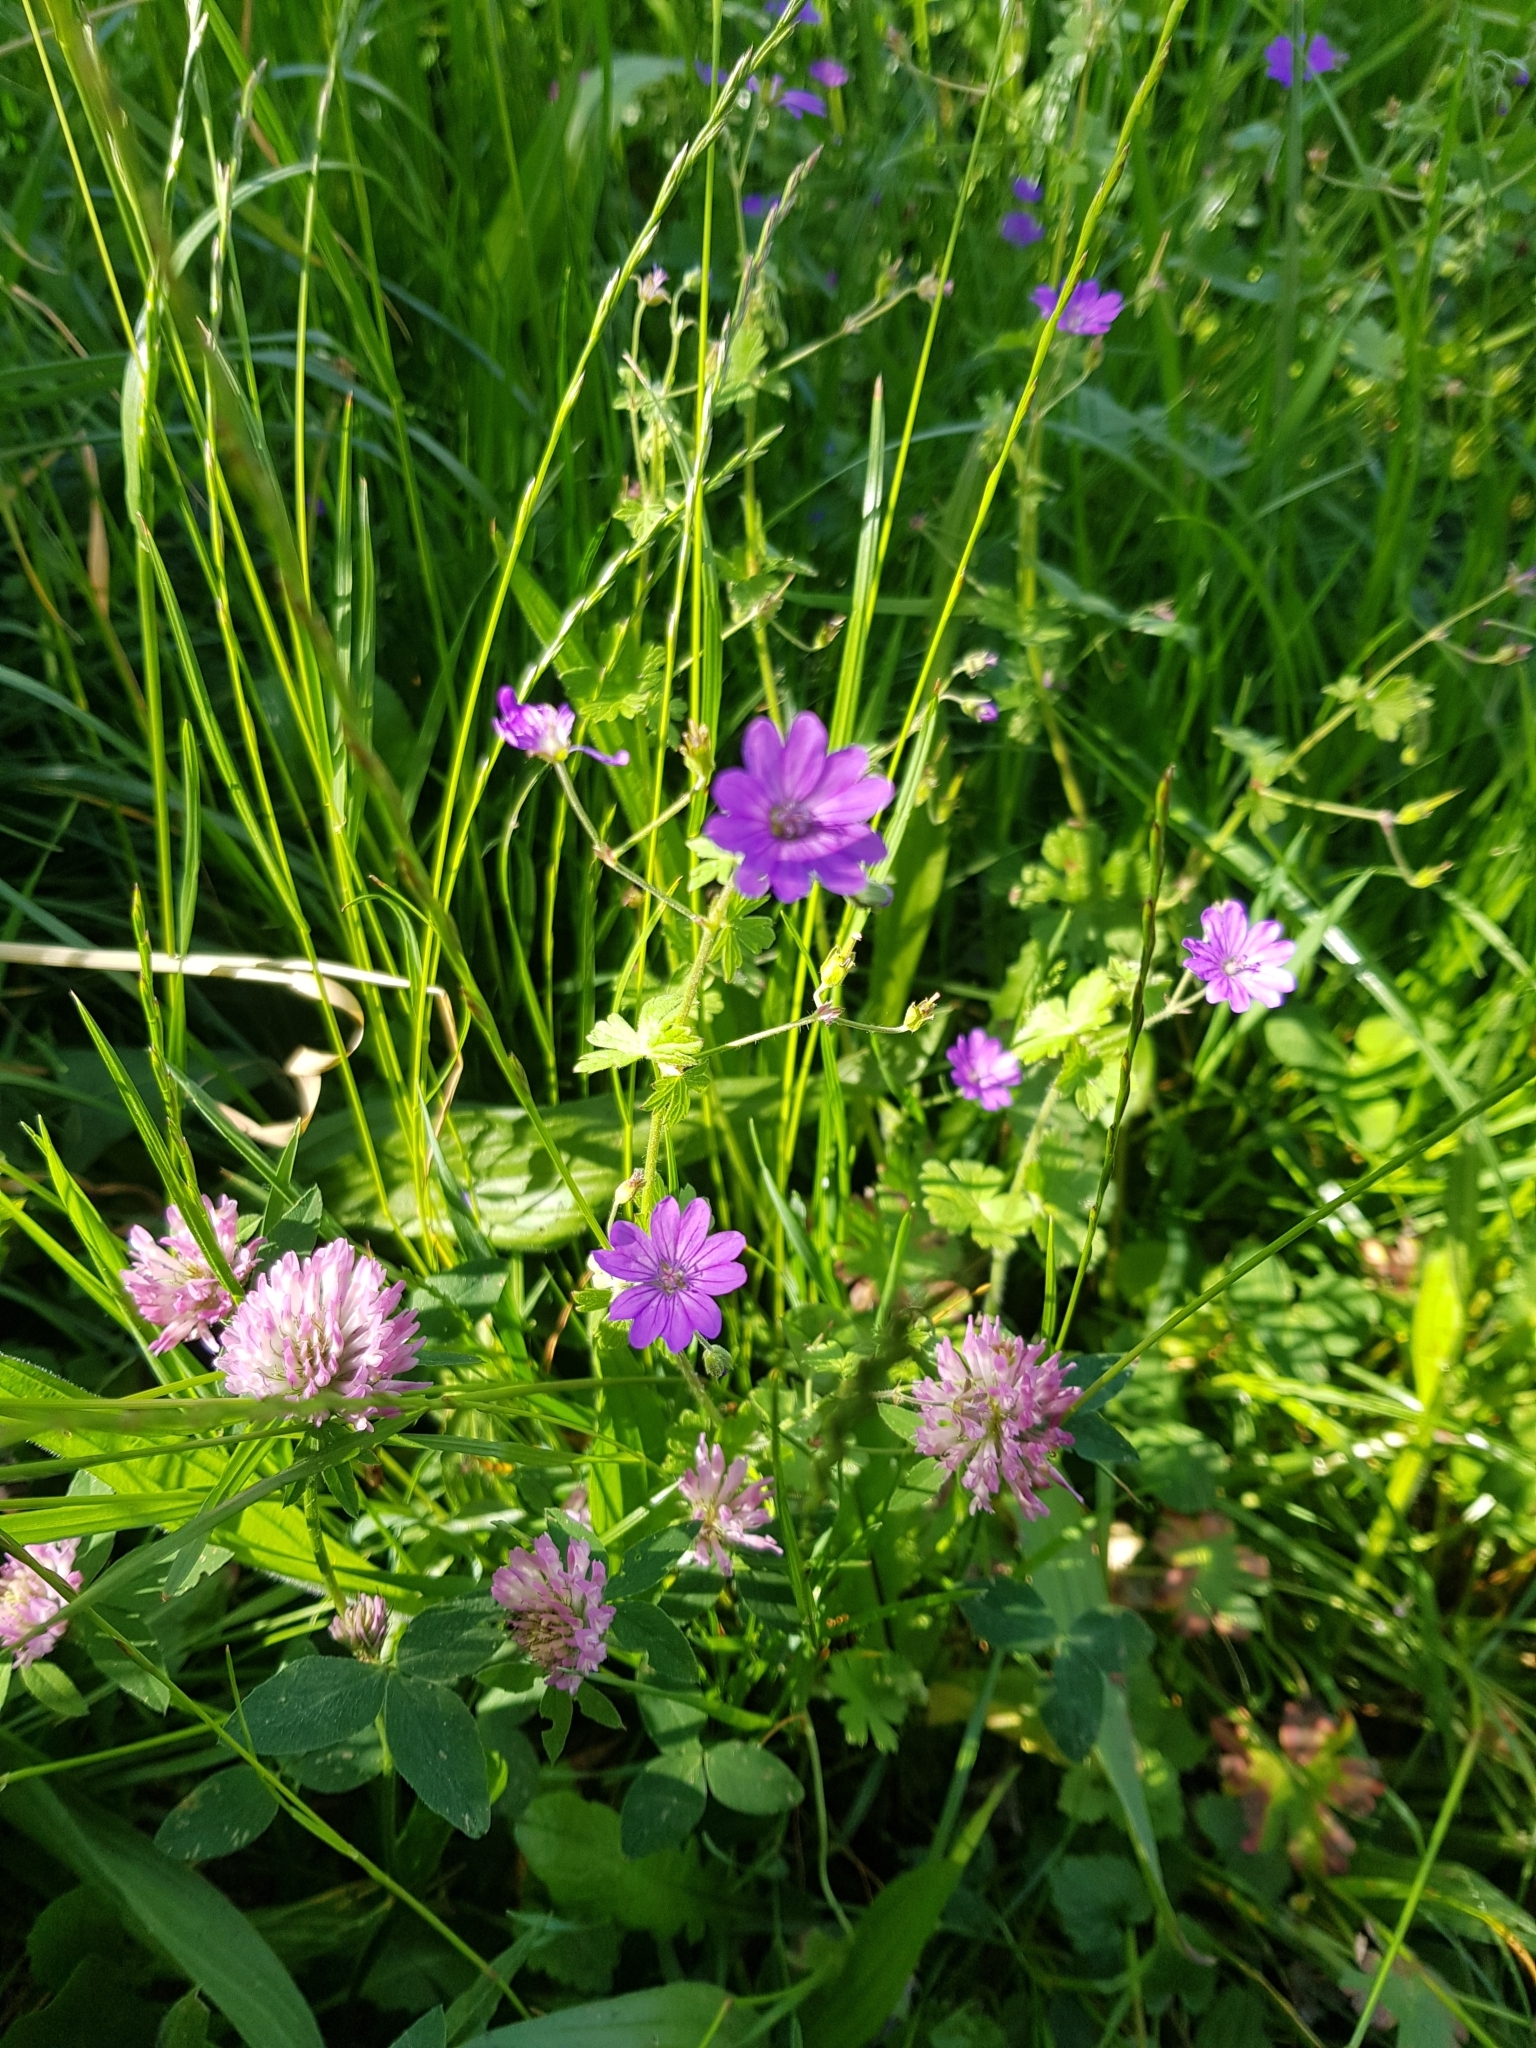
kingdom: Plantae
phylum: Tracheophyta
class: Magnoliopsida
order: Geraniales
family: Geraniaceae
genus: Geranium
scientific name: Geranium pyrenaicum
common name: Hedgerow crane's-bill
